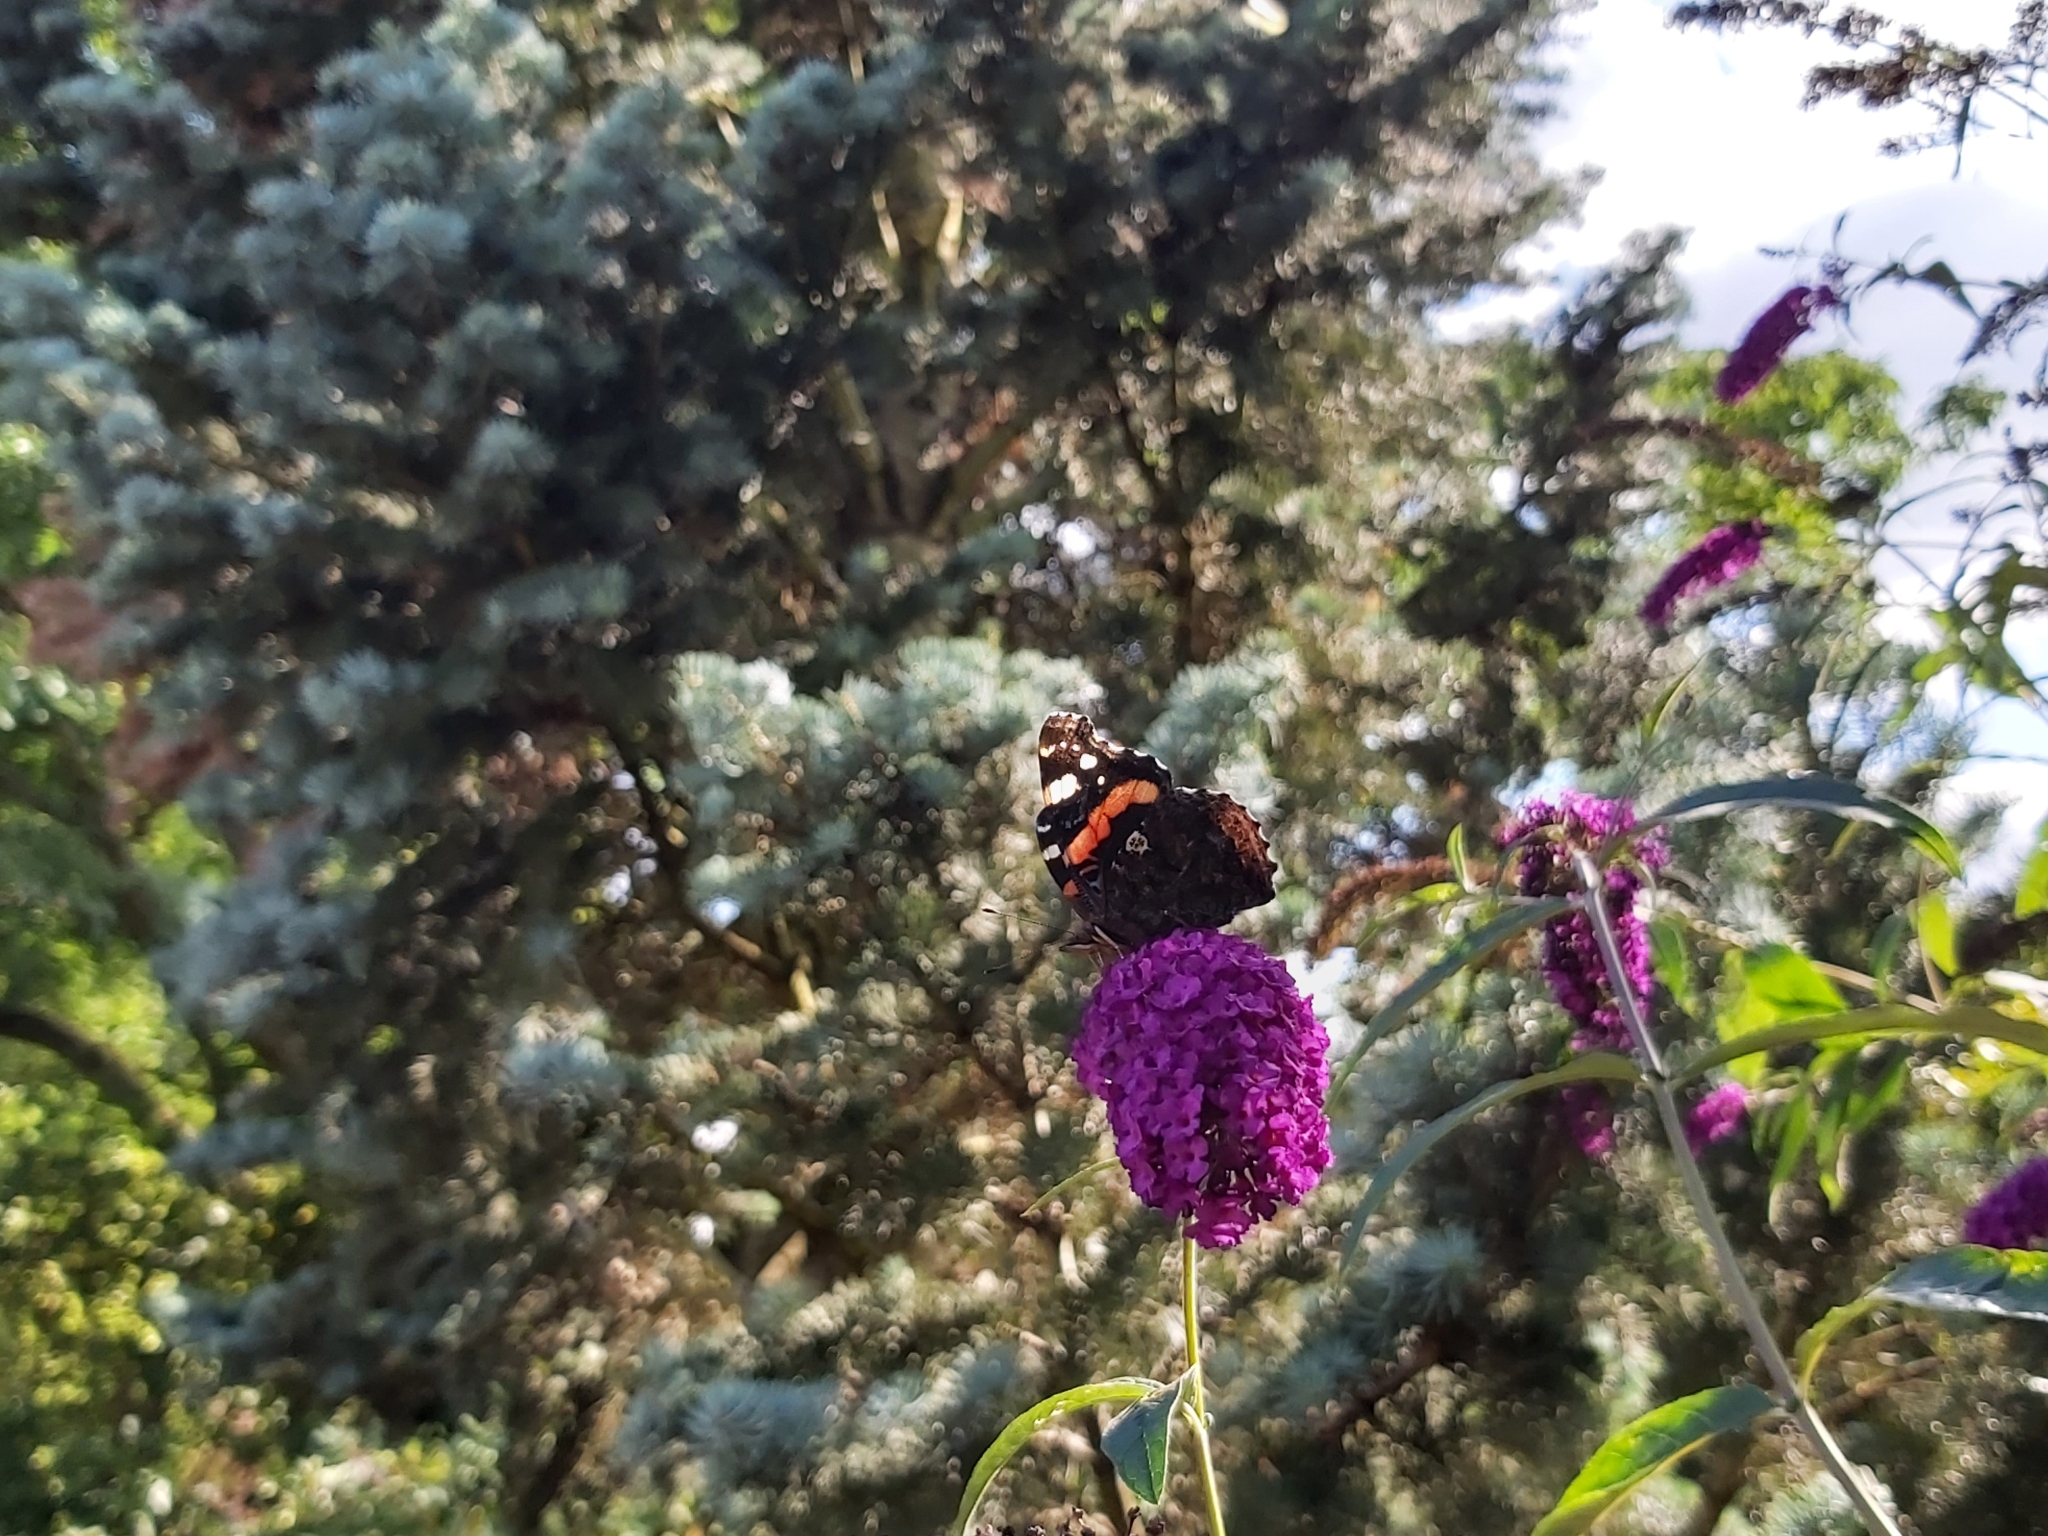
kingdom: Animalia
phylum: Arthropoda
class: Insecta
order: Lepidoptera
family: Nymphalidae
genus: Vanessa
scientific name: Vanessa atalanta
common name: Red admiral
